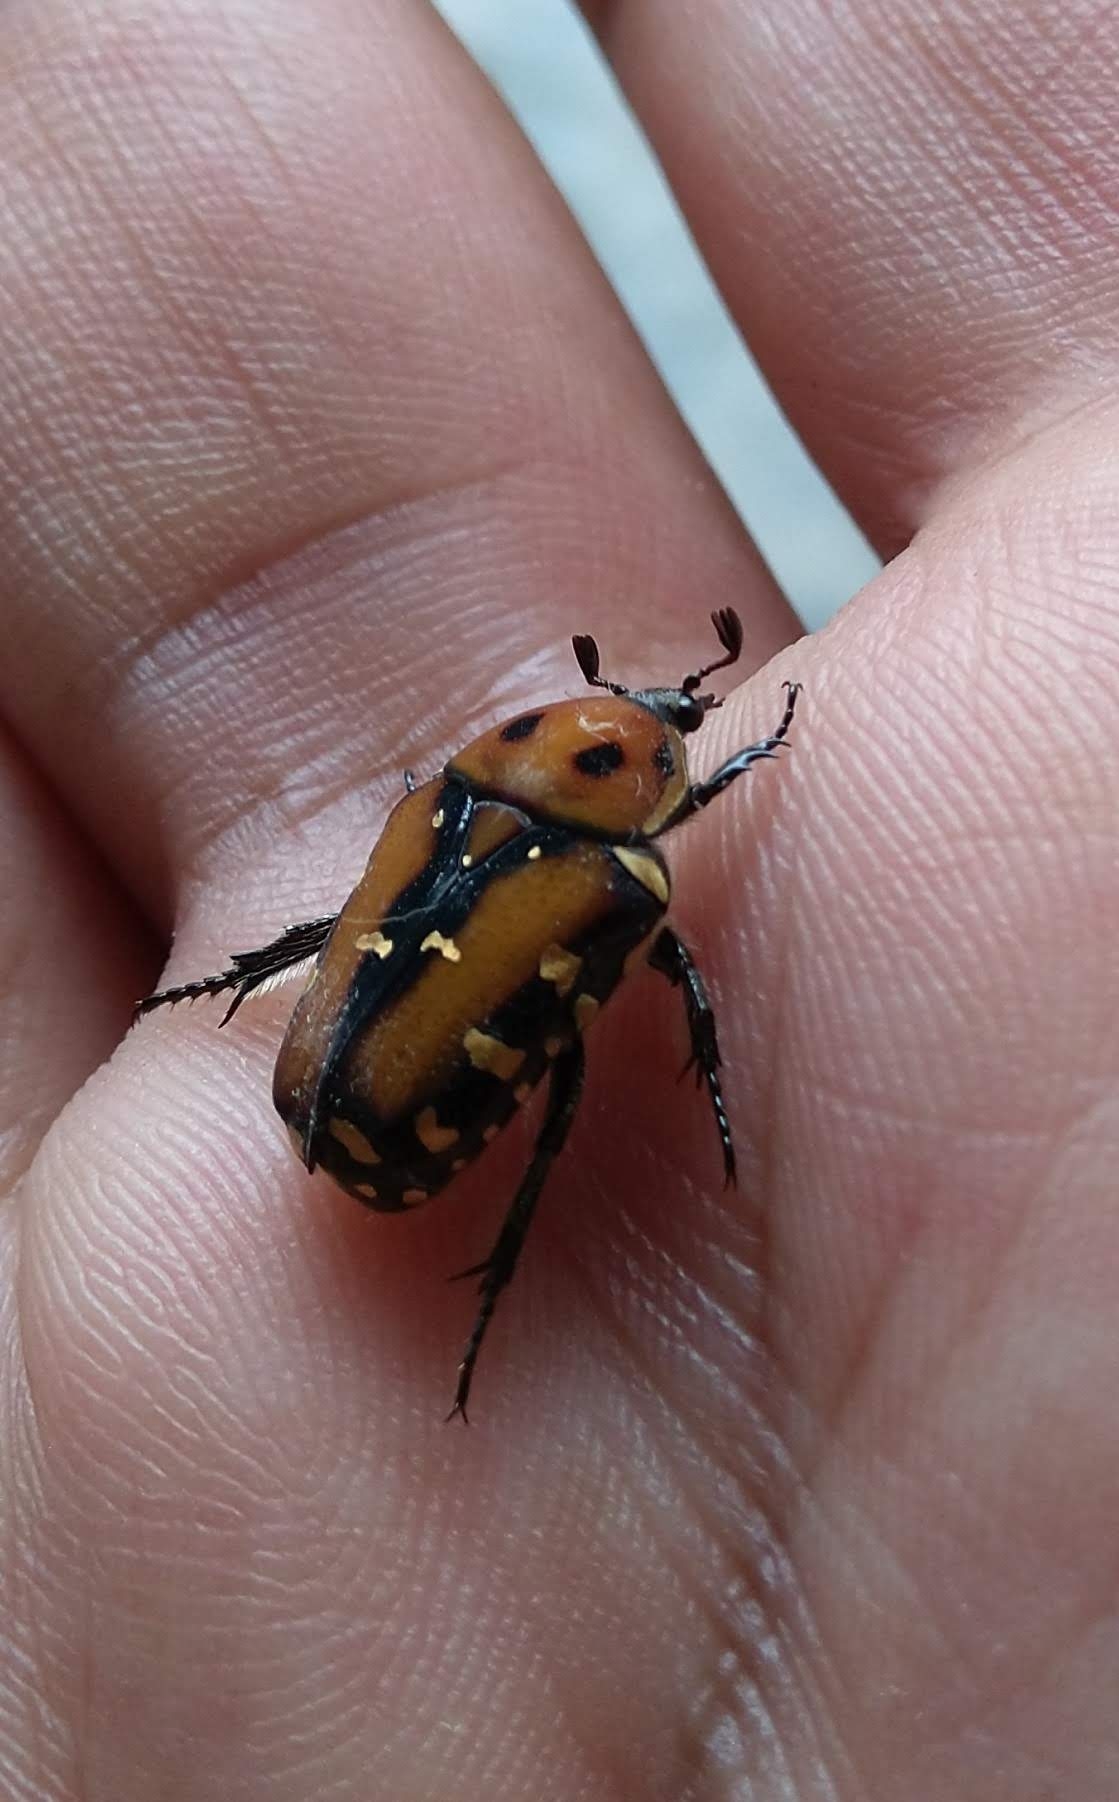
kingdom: Animalia
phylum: Arthropoda
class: Insecta
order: Coleoptera
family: Scarabaeidae
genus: Gametis
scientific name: Gametis versicolor
